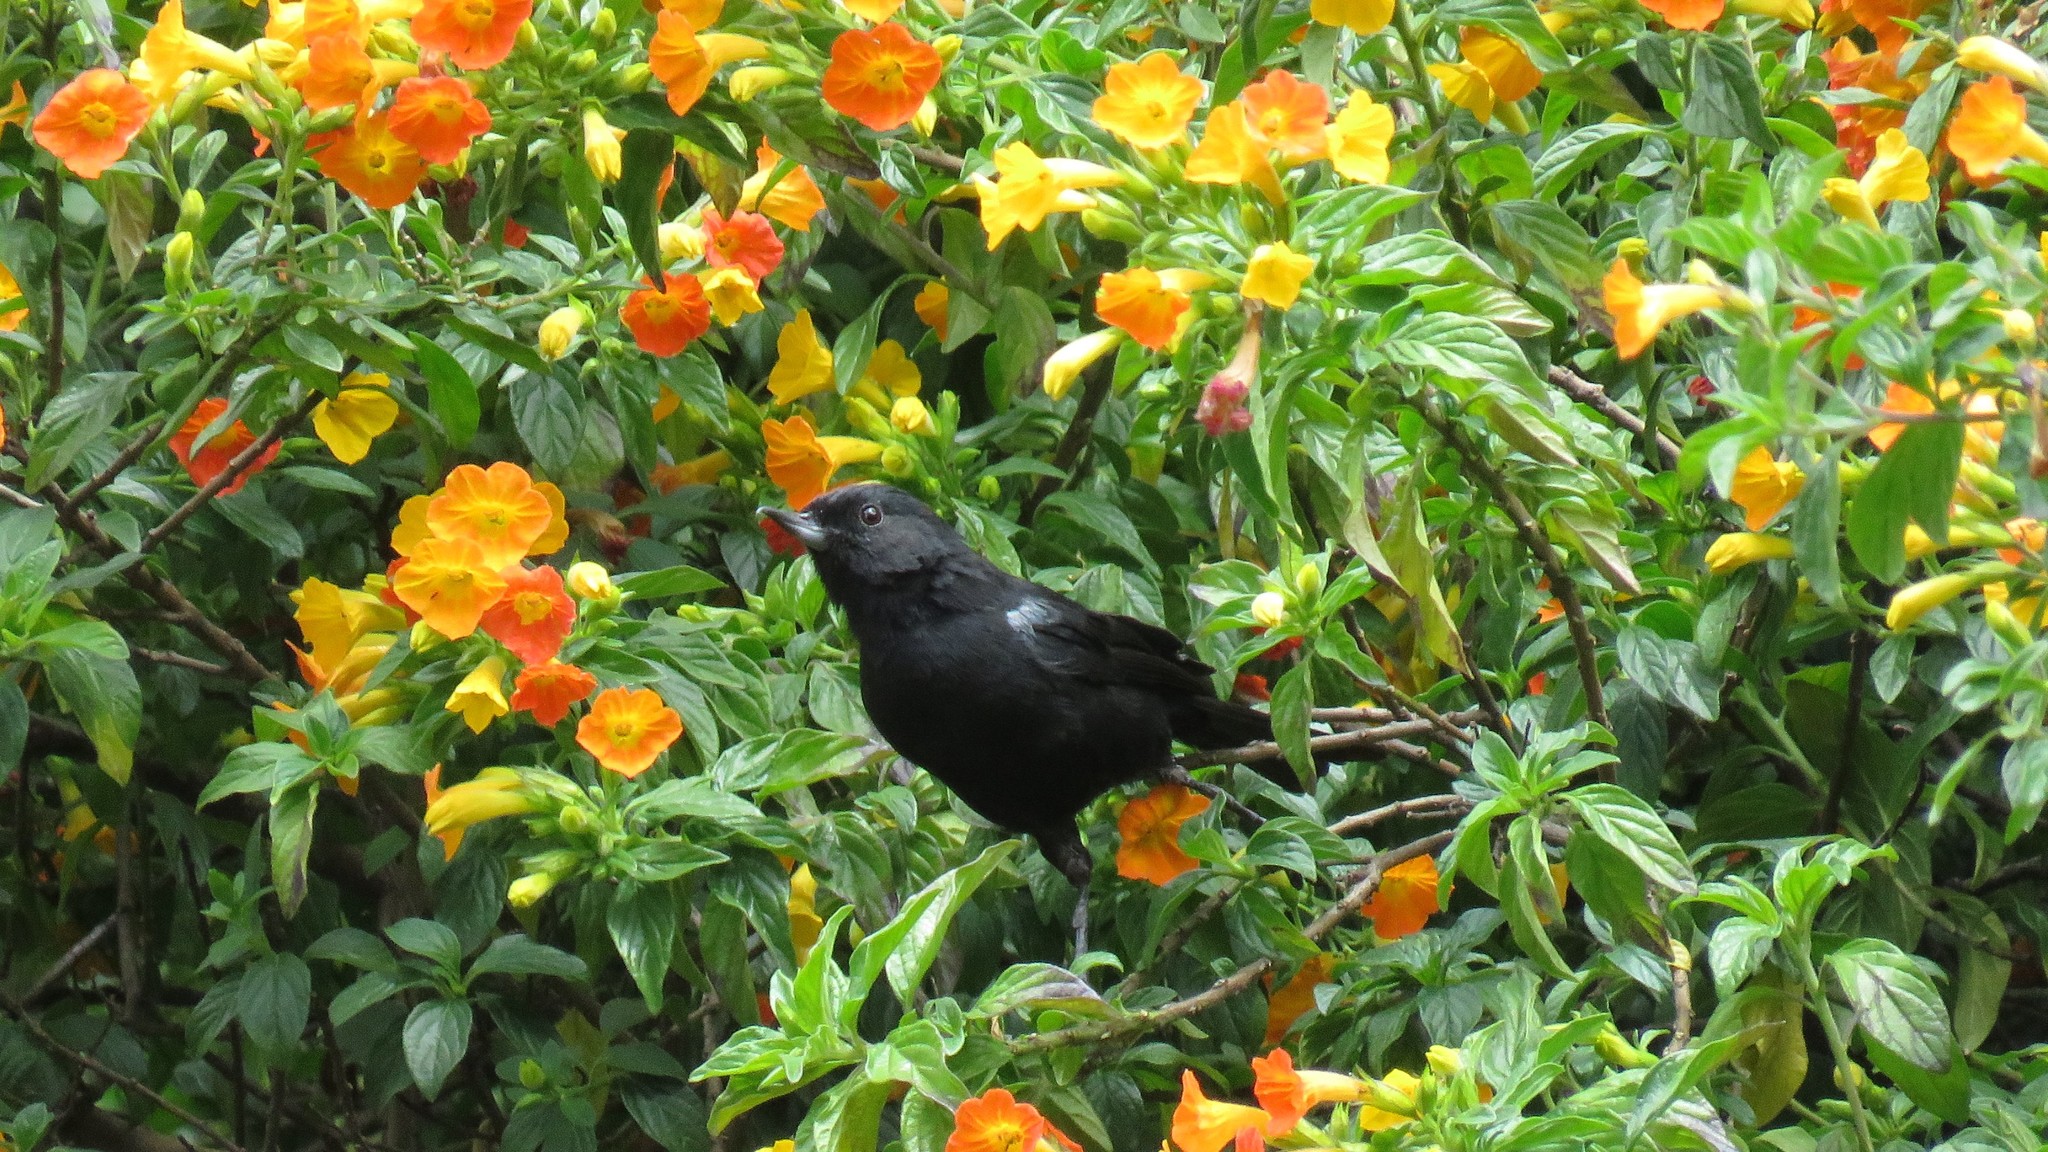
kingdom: Animalia
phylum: Chordata
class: Aves
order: Passeriformes
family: Thraupidae
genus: Diglossa
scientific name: Diglossa humeralis
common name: Black flowerpiercer
